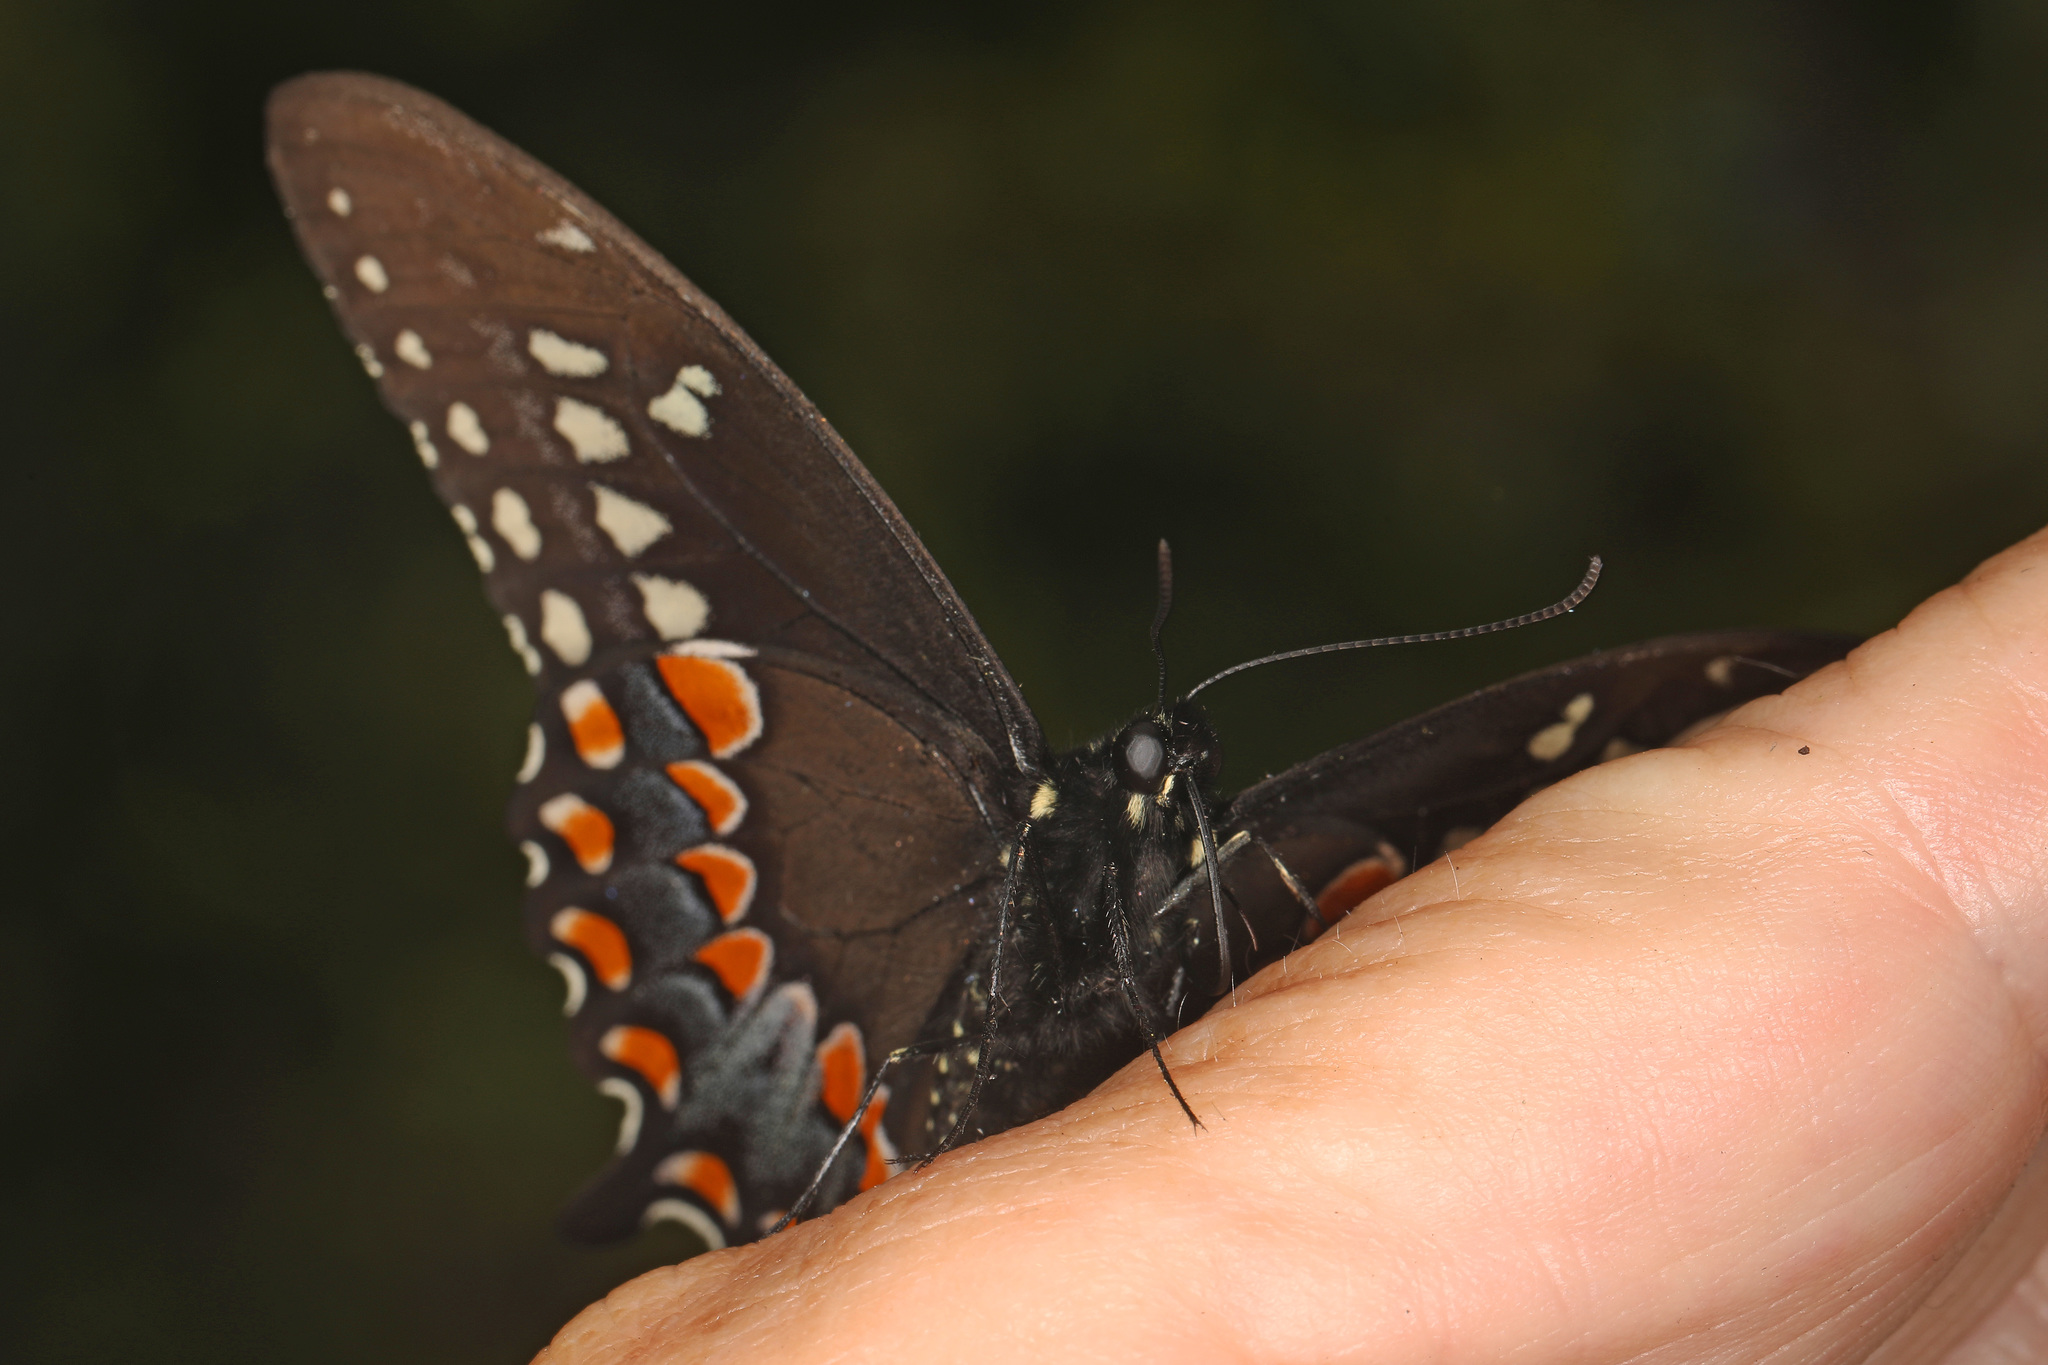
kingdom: Animalia
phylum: Arthropoda
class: Insecta
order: Lepidoptera
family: Papilionidae
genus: Papilio
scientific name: Papilio troilus
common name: Spicebush swallowtail
